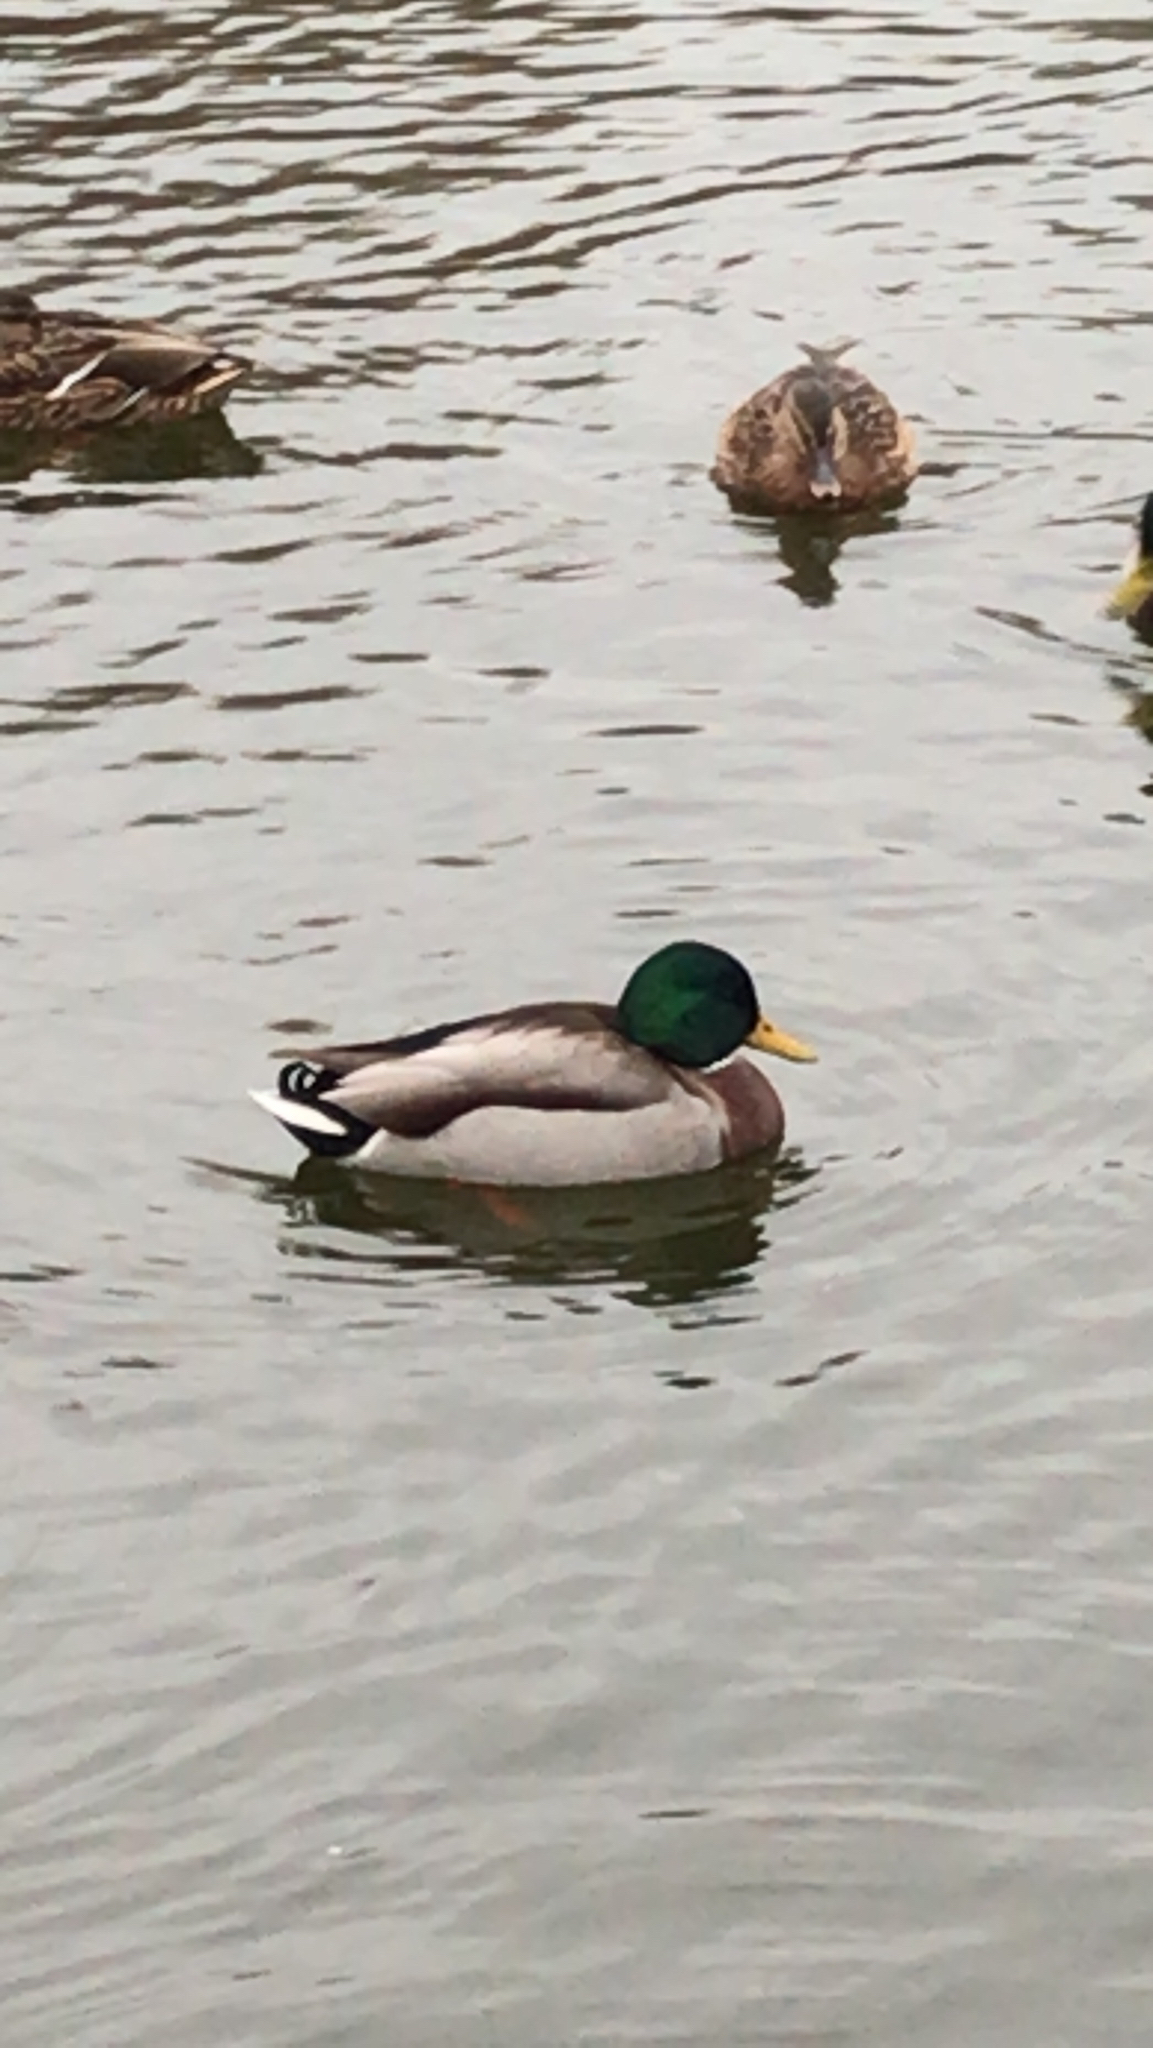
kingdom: Animalia
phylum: Chordata
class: Aves
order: Anseriformes
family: Anatidae
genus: Anas
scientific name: Anas platyrhynchos
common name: Mallard
